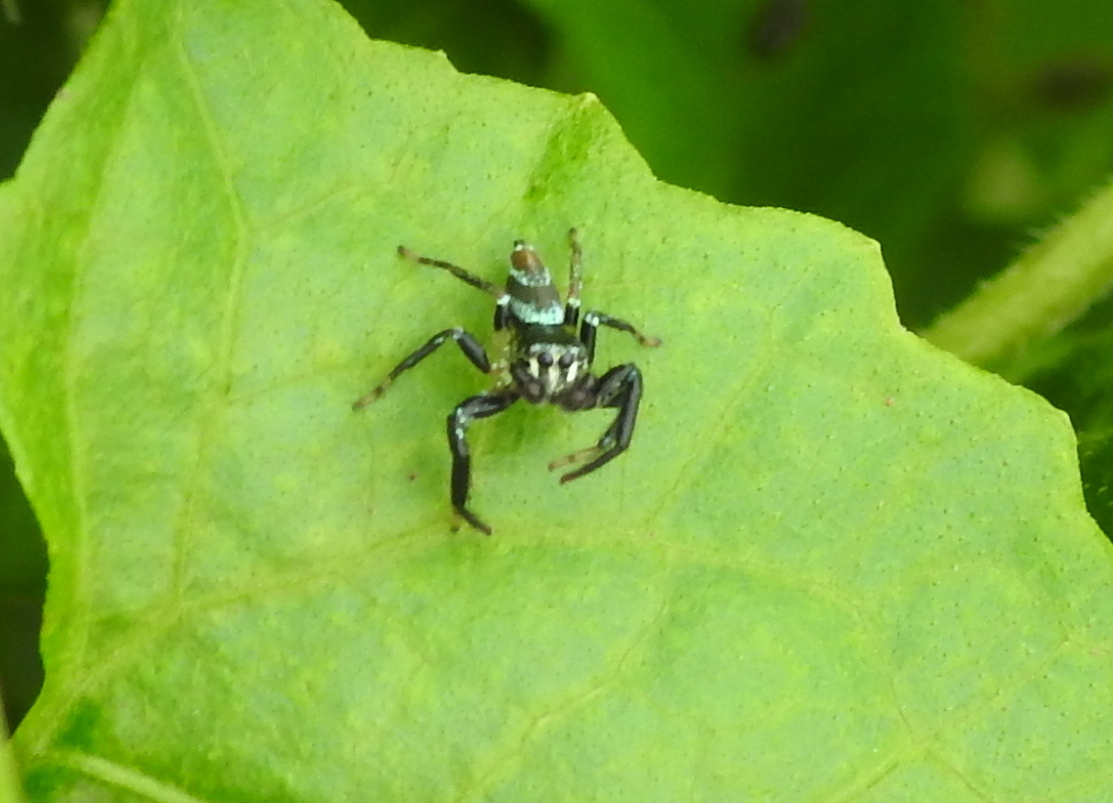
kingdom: Animalia
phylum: Arthropoda
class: Arachnida
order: Araneae
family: Salticidae
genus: Thiania
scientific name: Thiania bhamoensis
